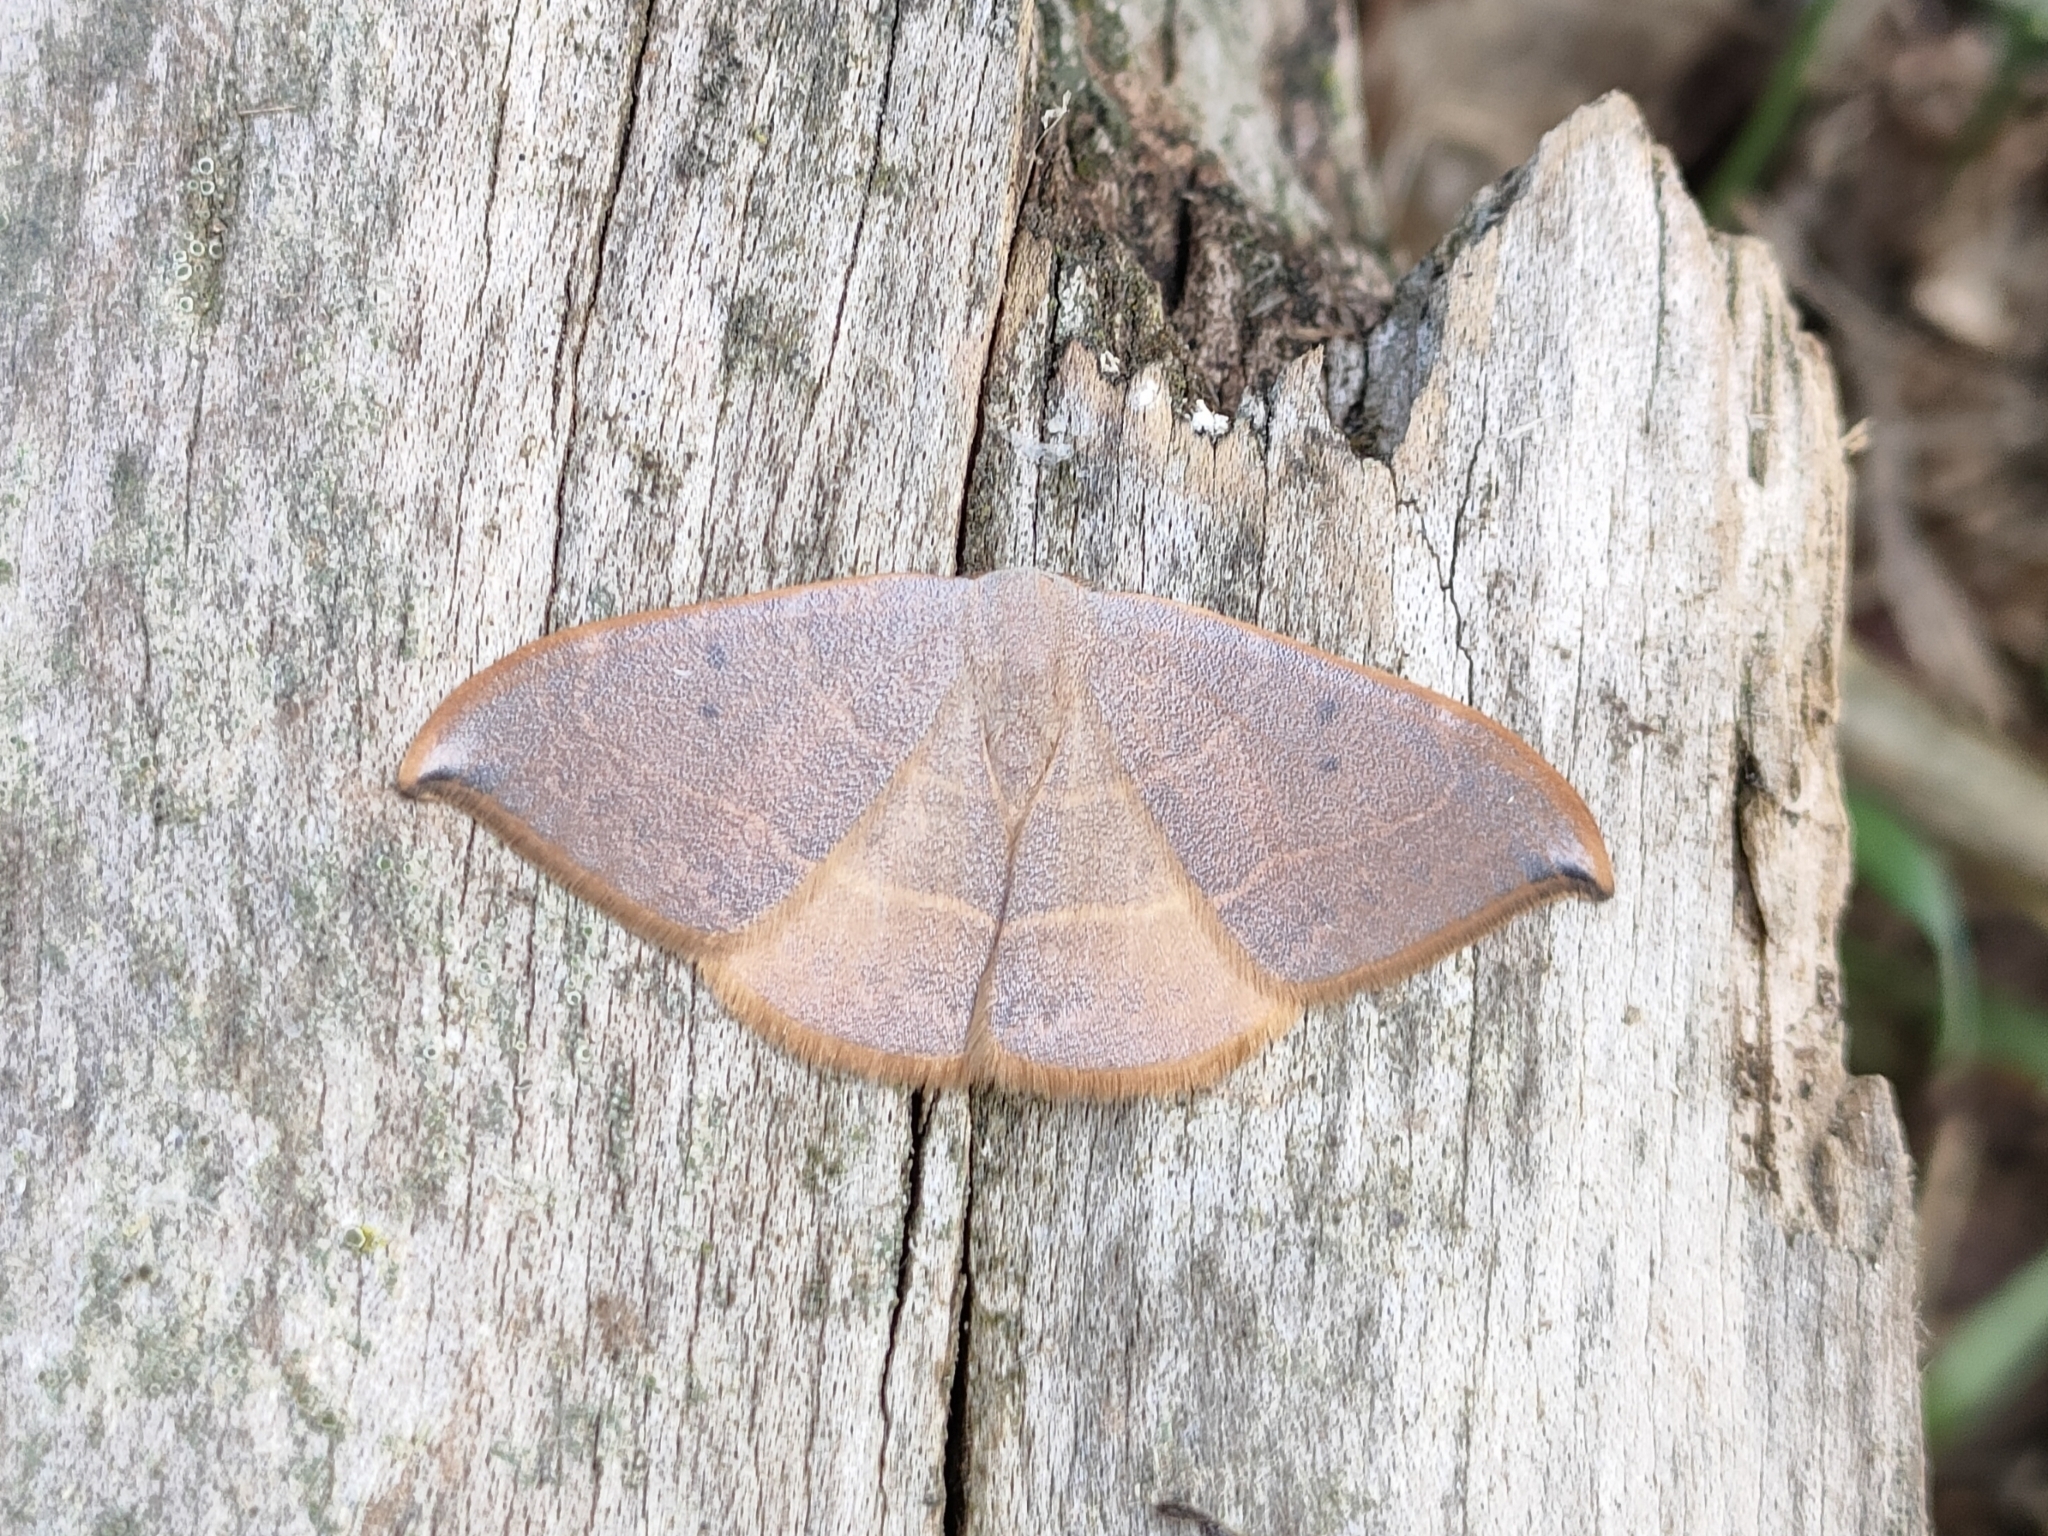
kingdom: Animalia
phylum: Arthropoda
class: Insecta
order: Lepidoptera
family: Drepanidae
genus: Watsonalla
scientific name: Watsonalla uncinula
